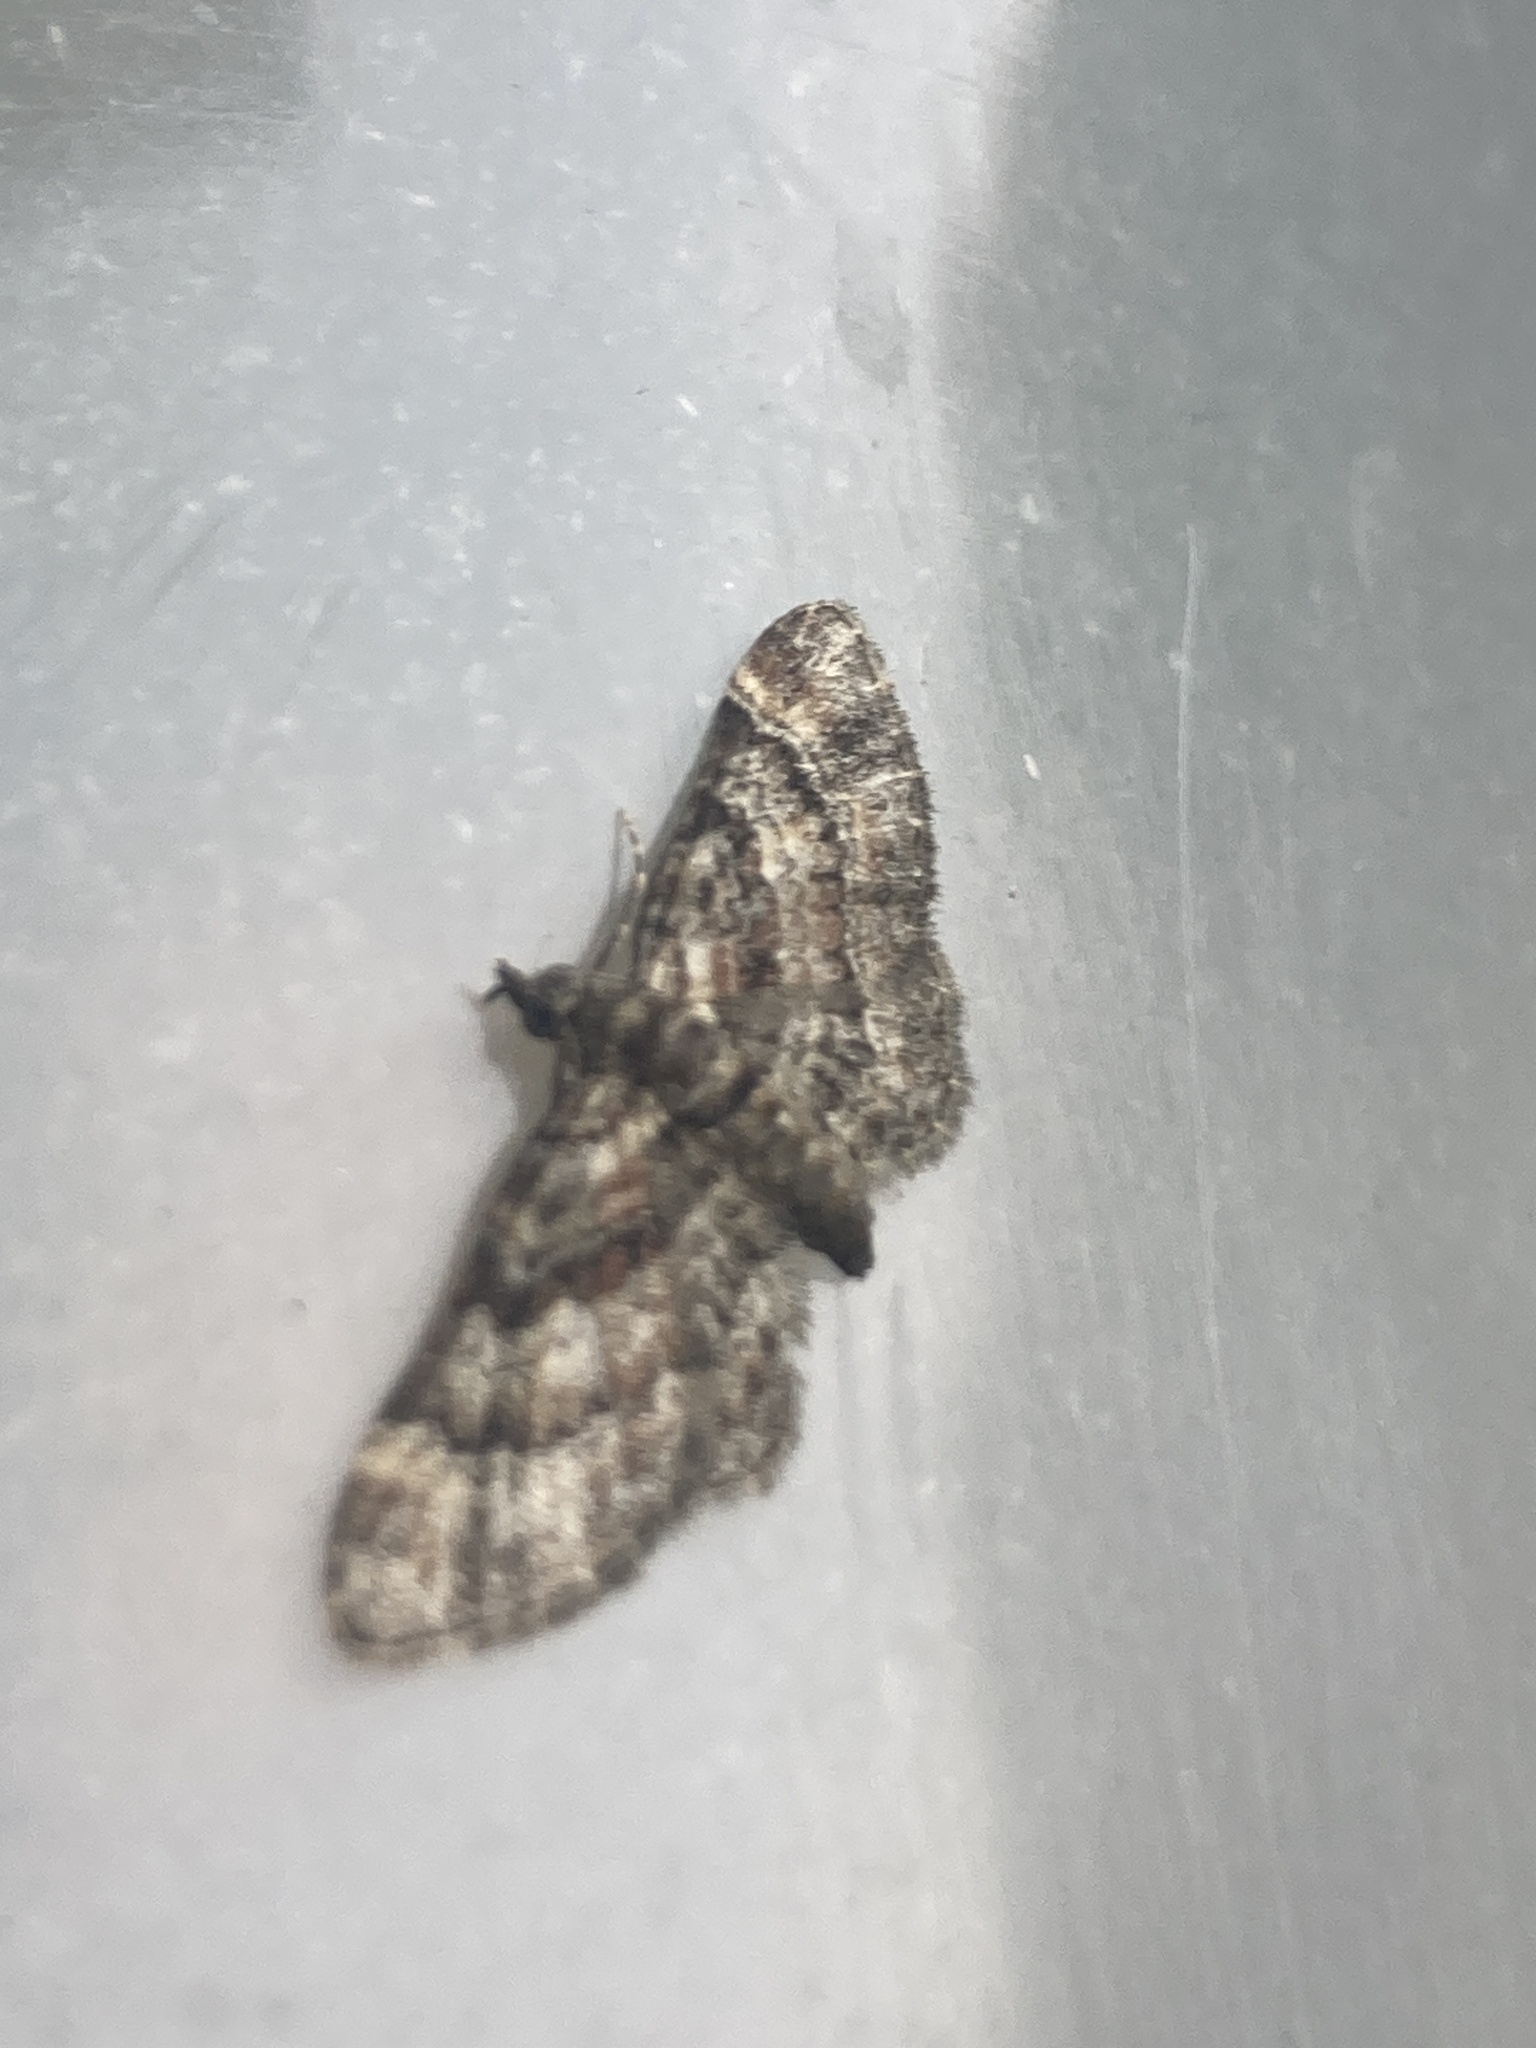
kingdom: Animalia
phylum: Arthropoda
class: Insecta
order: Lepidoptera
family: Geometridae
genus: Gymnoscelis
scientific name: Gymnoscelis rufifasciata
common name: Double-striped pug
